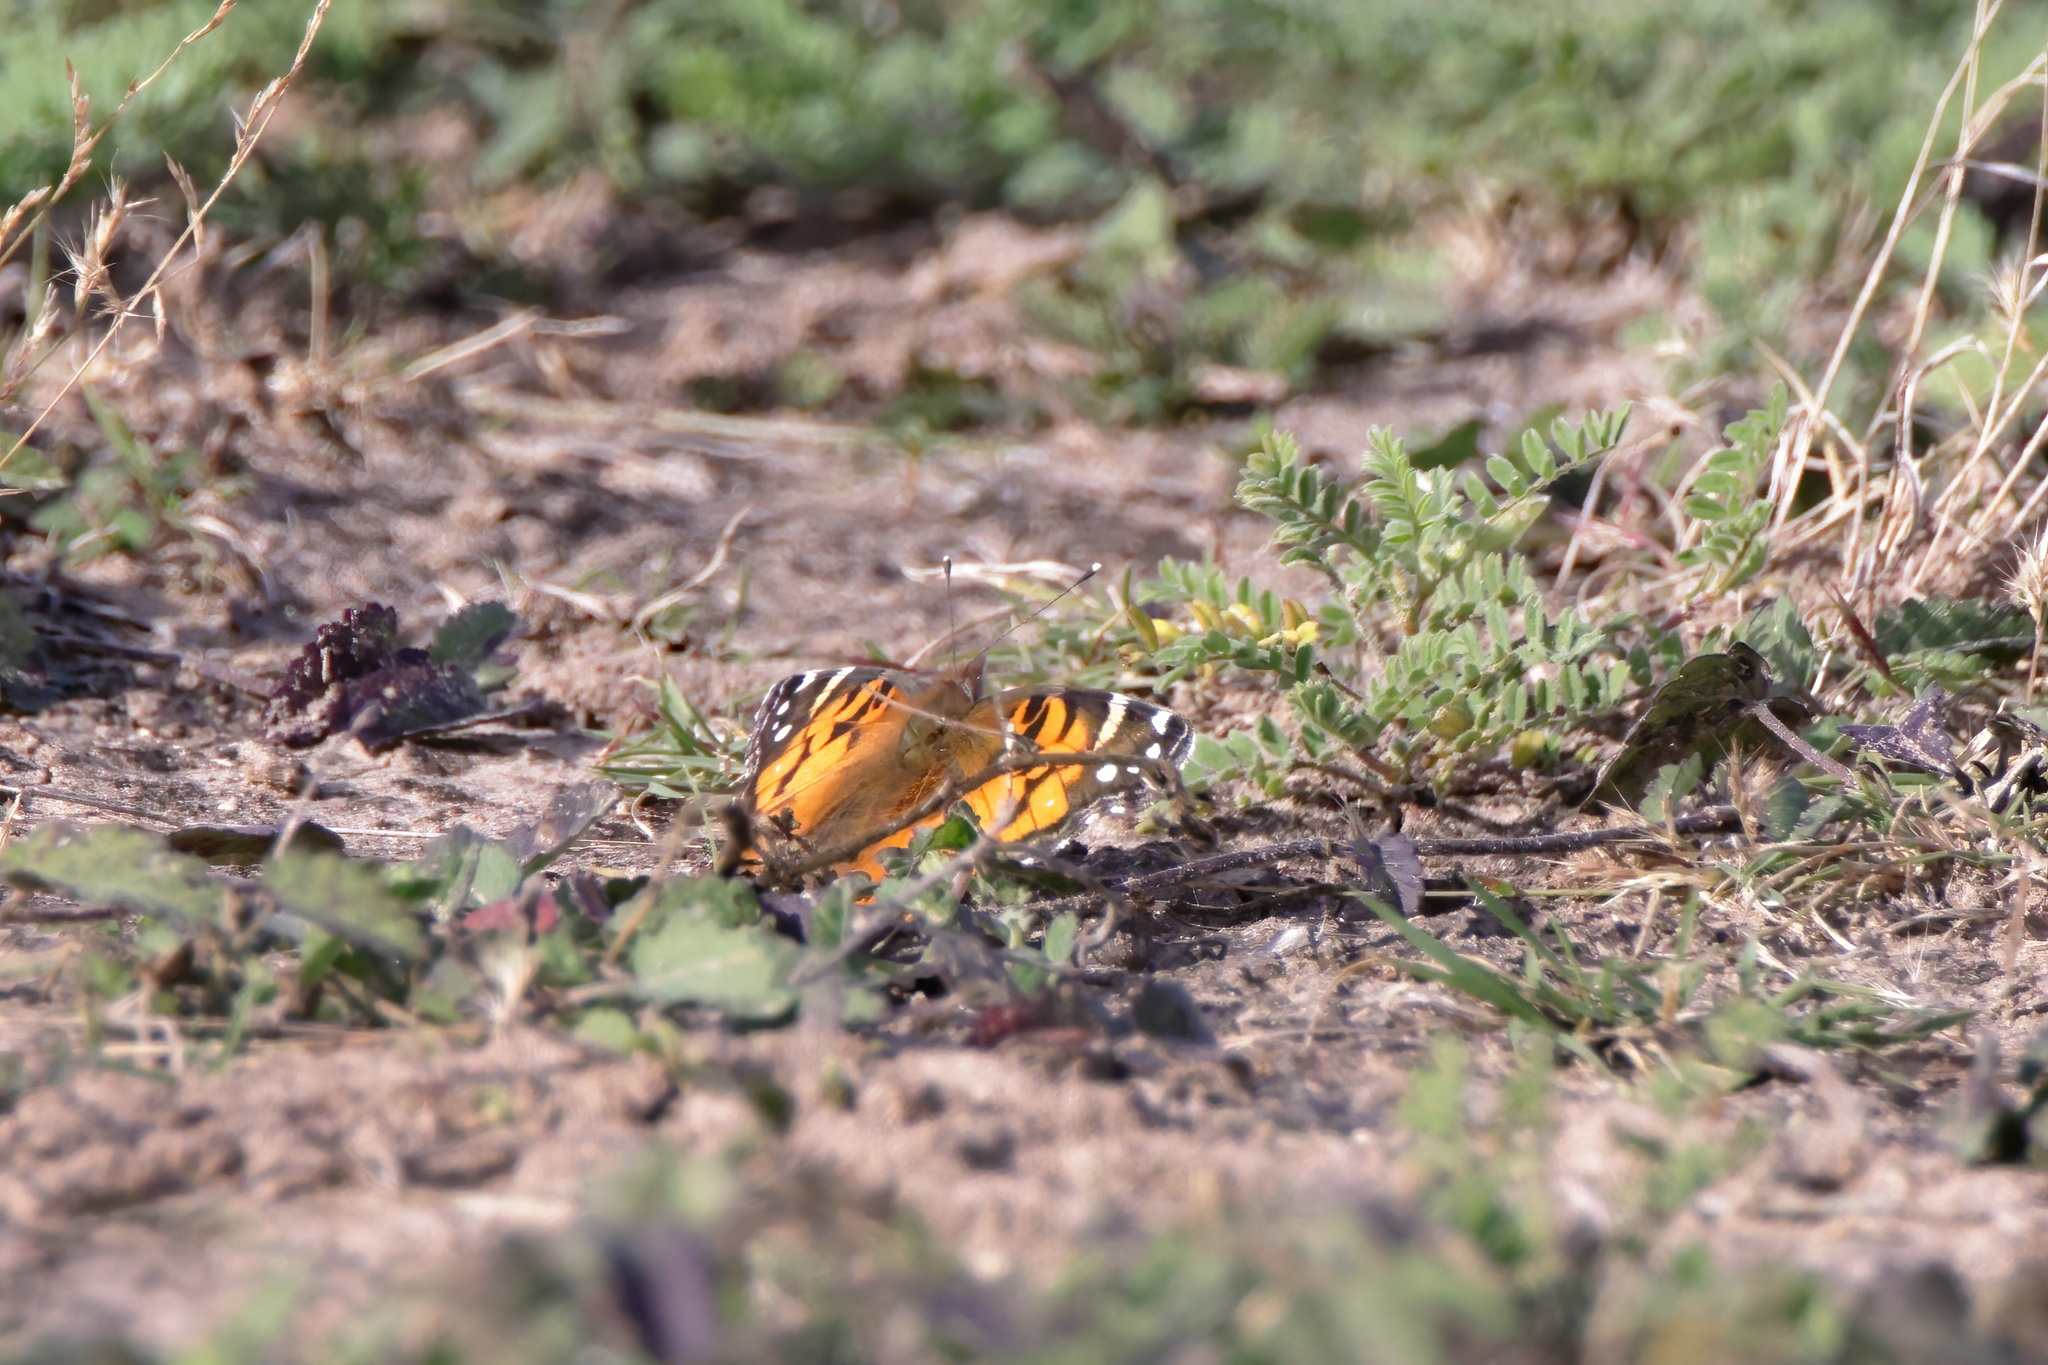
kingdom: Animalia
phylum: Arthropoda
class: Insecta
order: Lepidoptera
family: Nymphalidae
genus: Vanessa
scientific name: Vanessa virginiensis
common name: American lady
